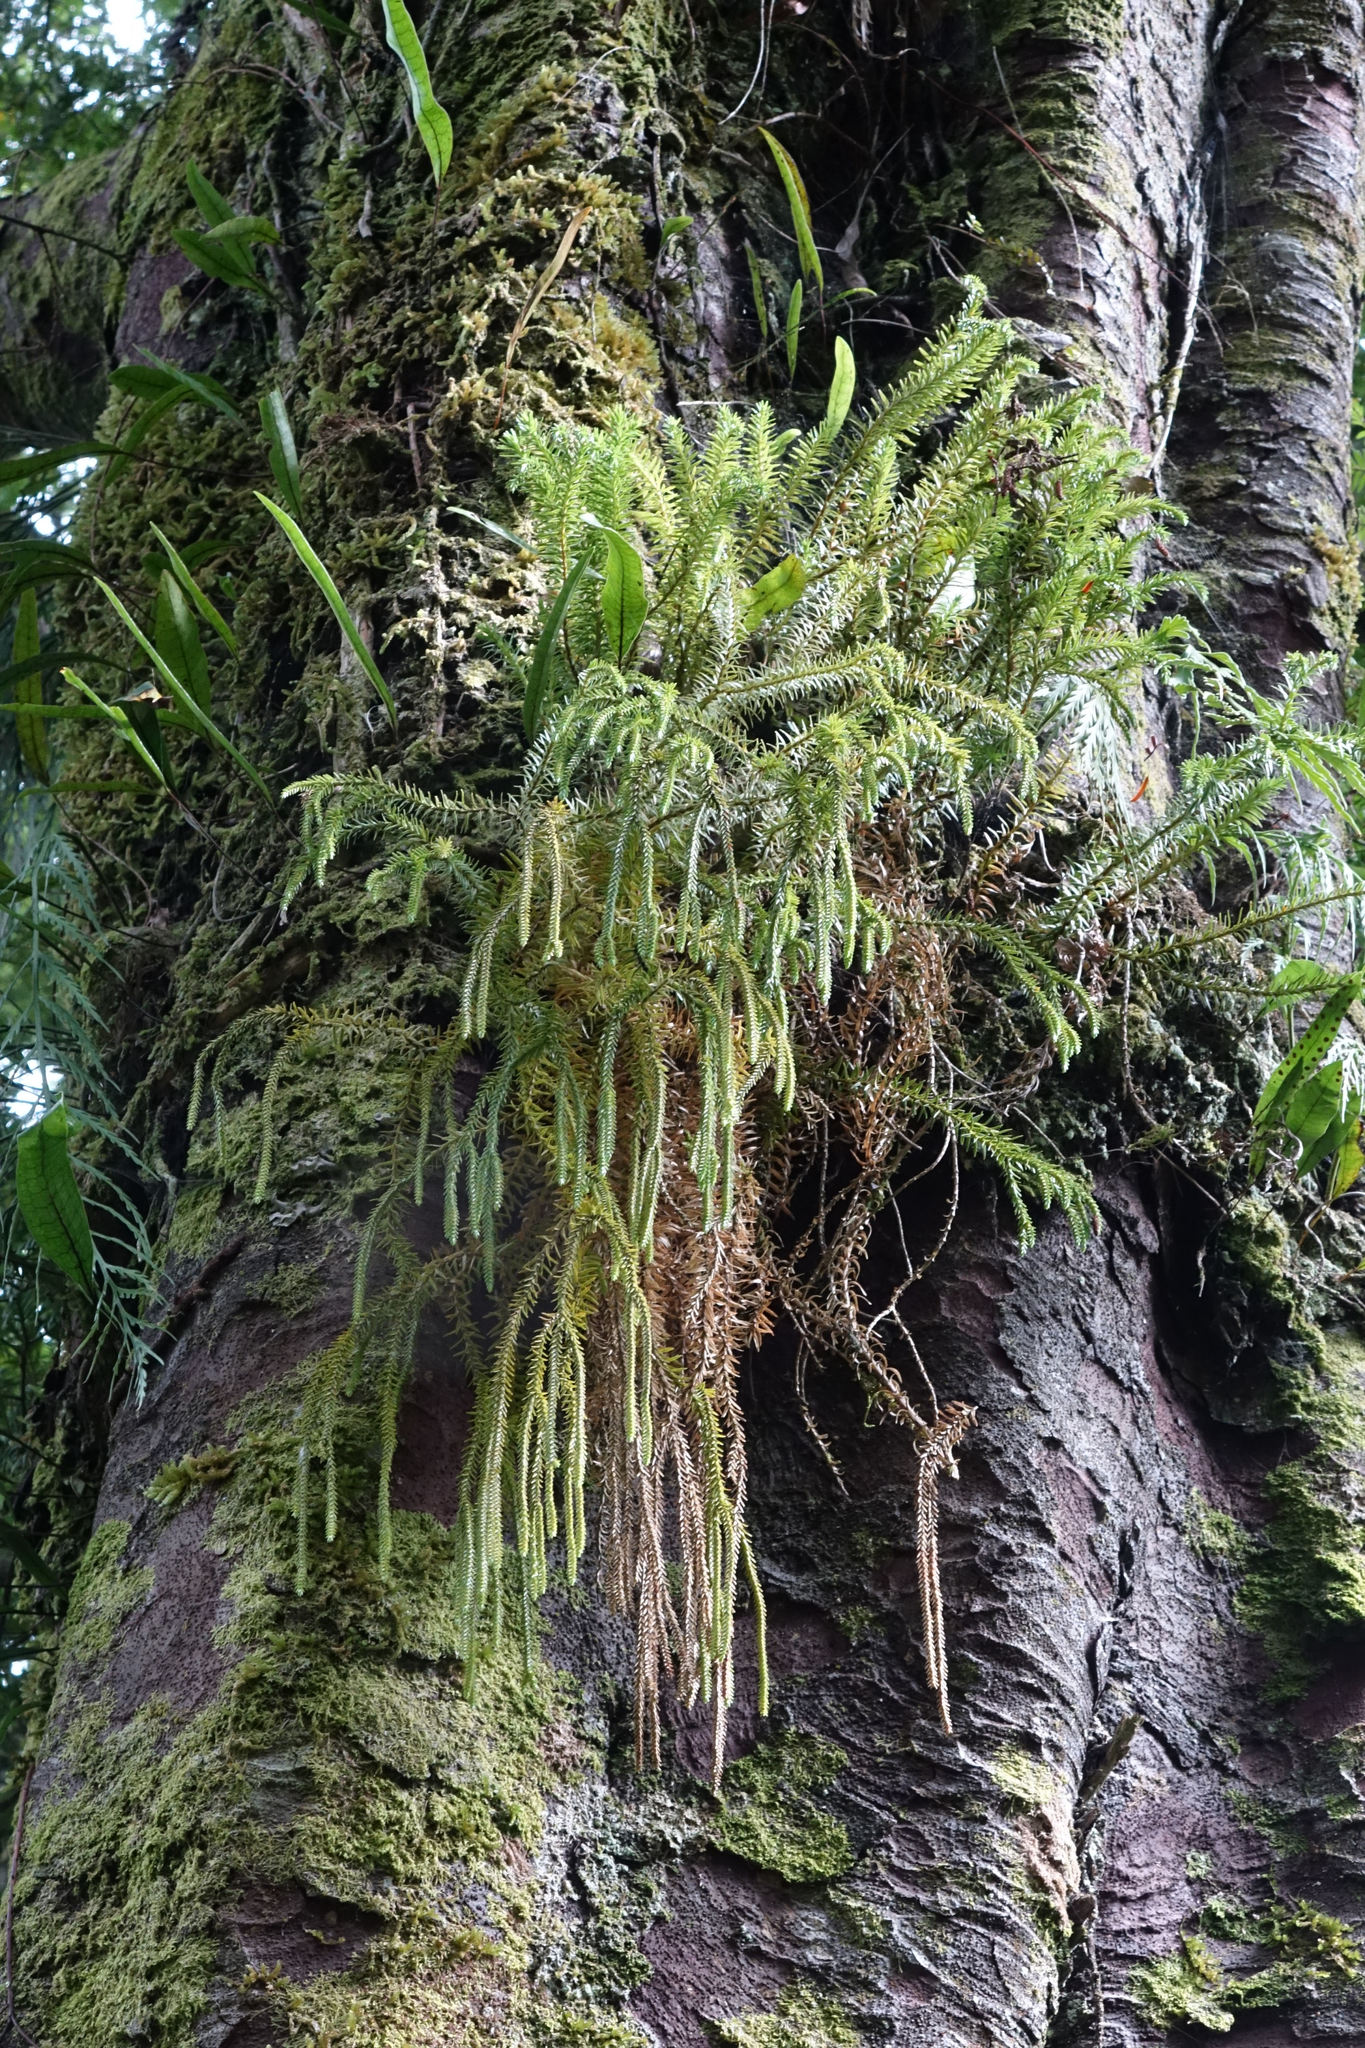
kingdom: Plantae
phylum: Tracheophyta
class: Lycopodiopsida
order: Lycopodiales
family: Lycopodiaceae
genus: Phlegmariurus
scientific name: Phlegmariurus varius
